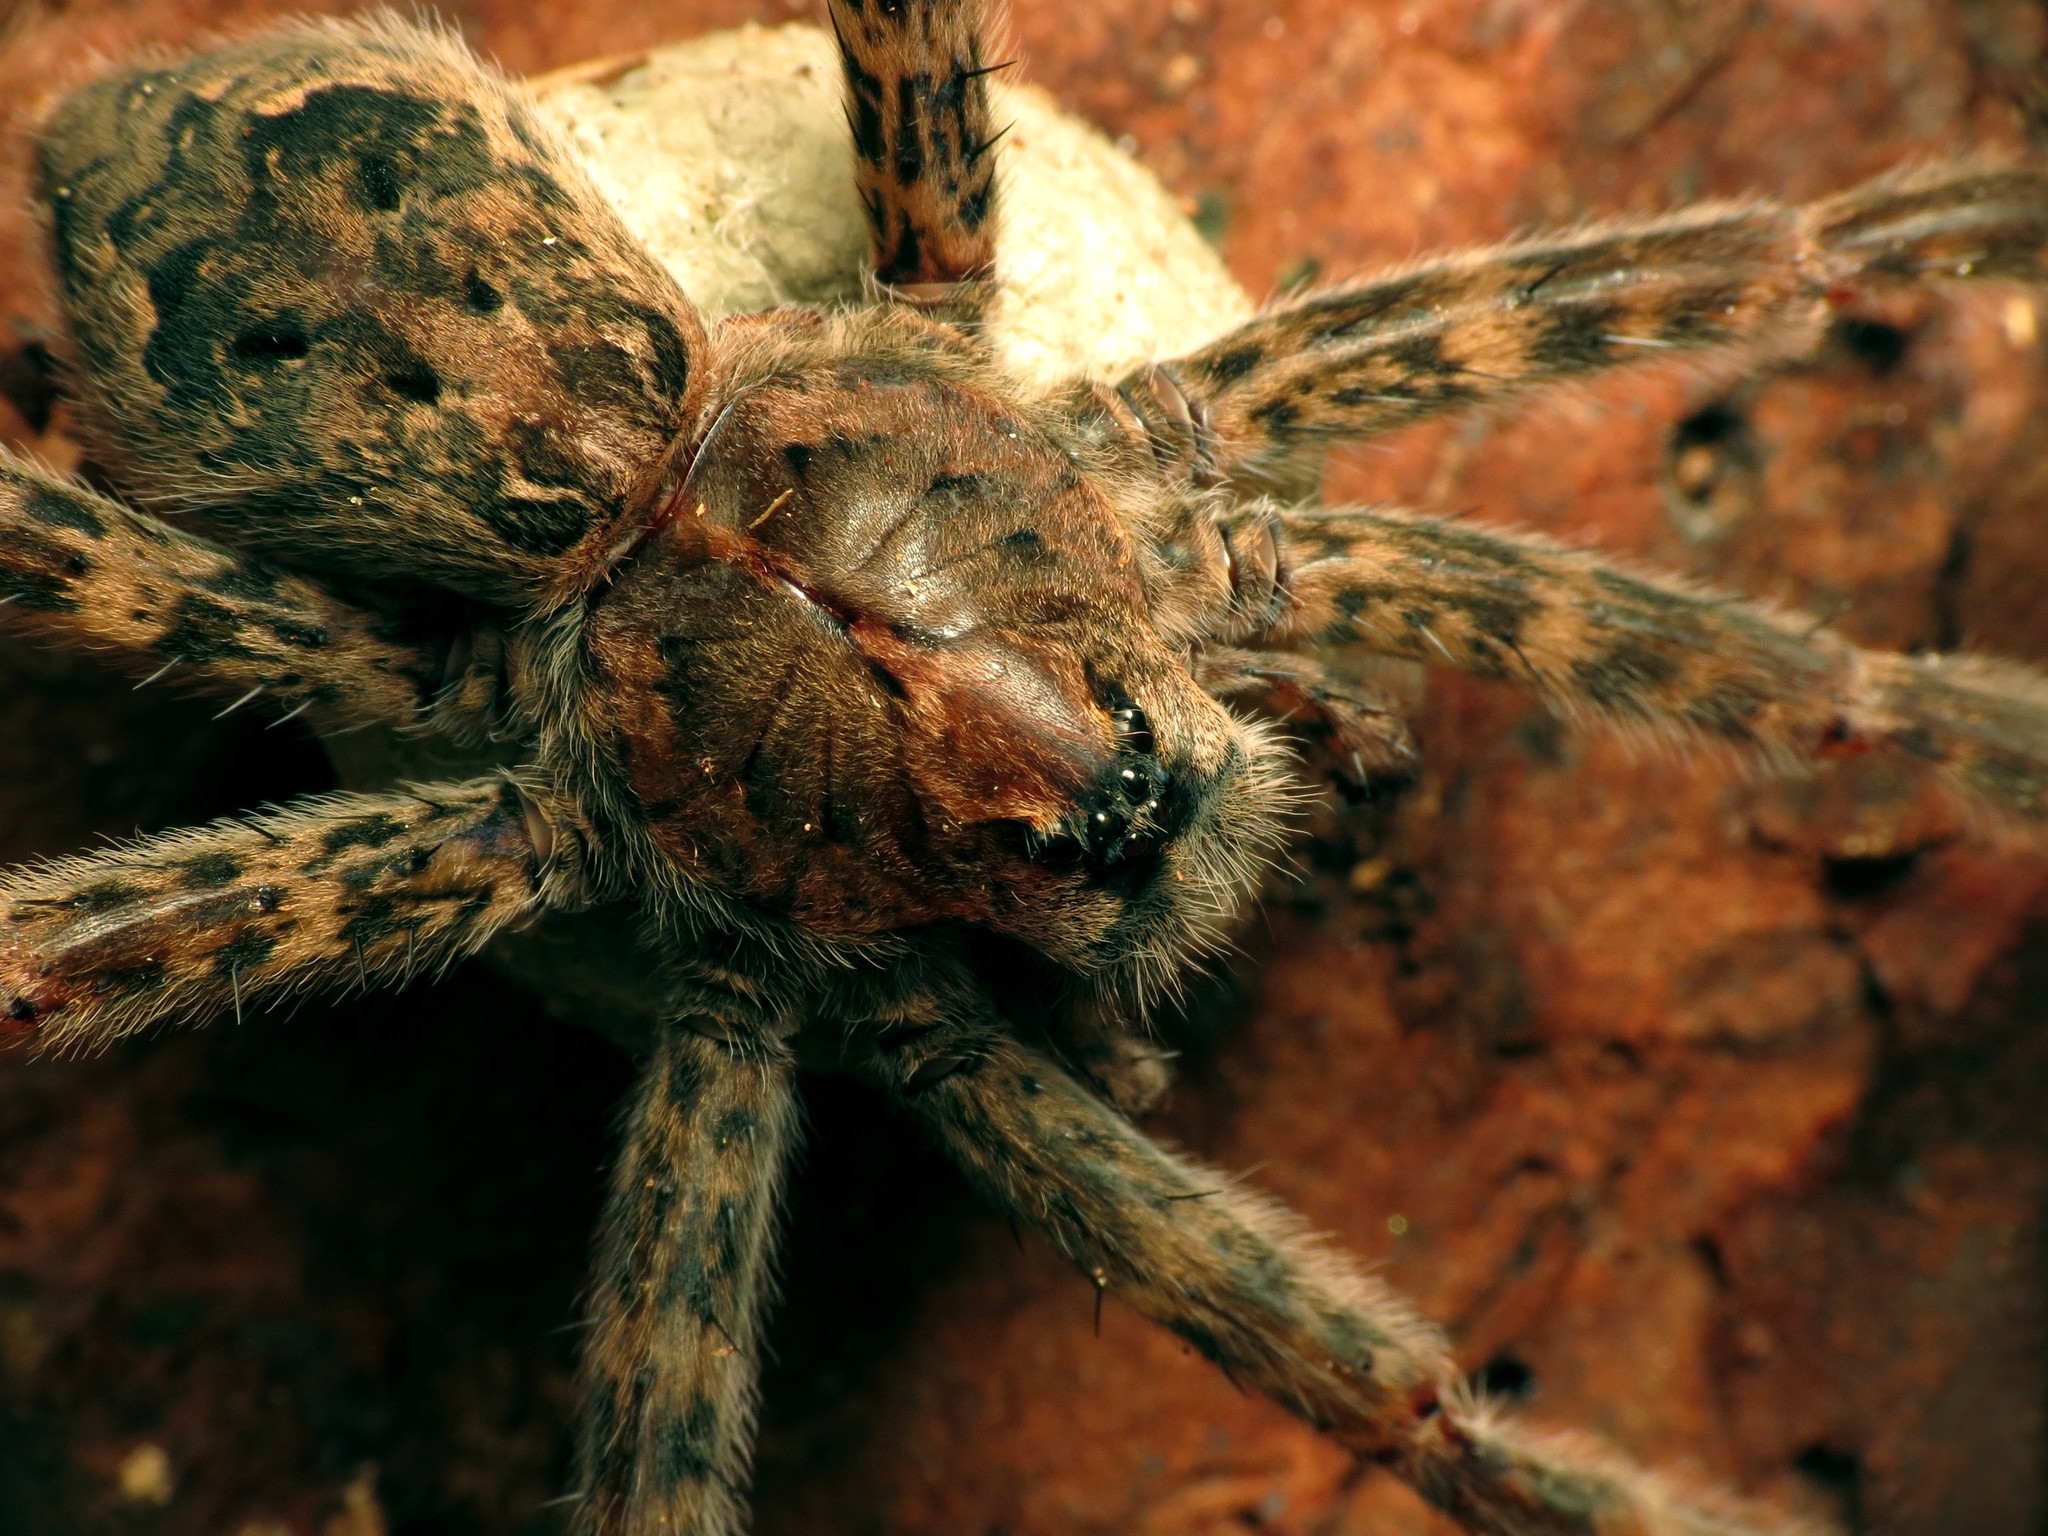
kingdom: Animalia
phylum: Arthropoda
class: Arachnida
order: Araneae
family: Pisauridae
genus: Dolomedes
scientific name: Dolomedes tenebrosus
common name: Dark fishing spider
